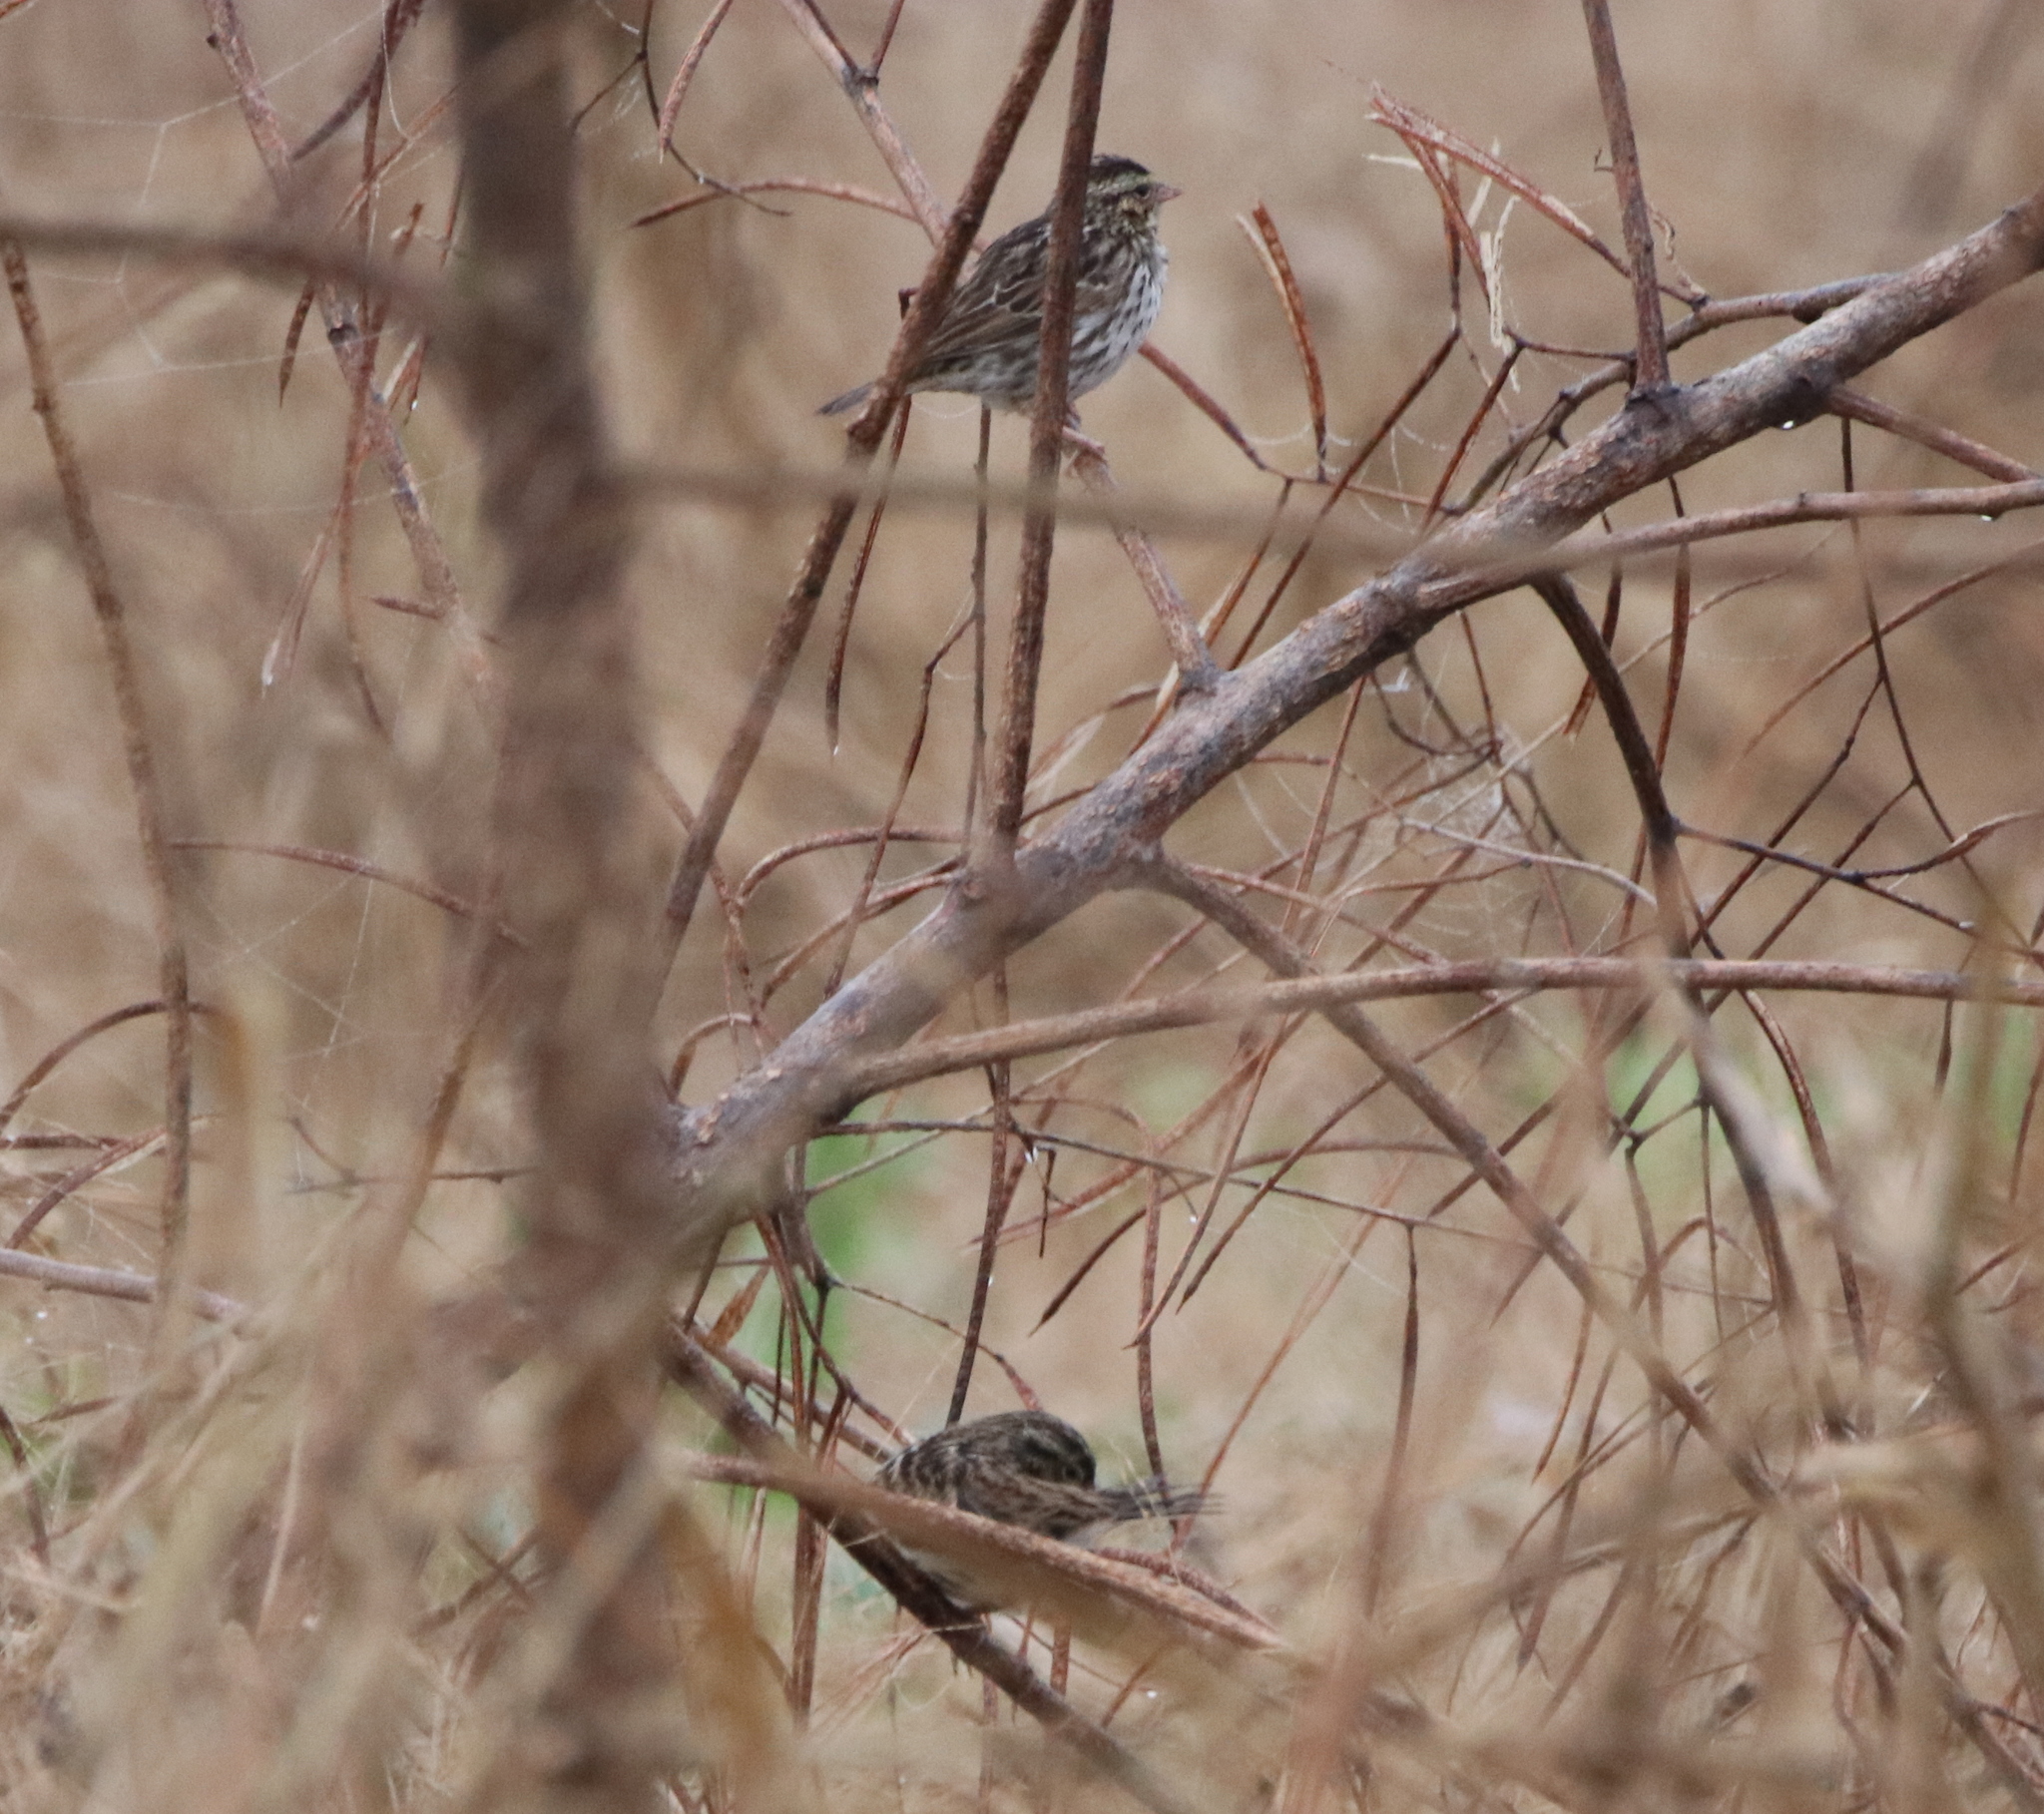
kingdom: Animalia
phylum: Chordata
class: Aves
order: Passeriformes
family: Passerellidae
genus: Passerculus
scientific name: Passerculus sandwichensis
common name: Savannah sparrow
